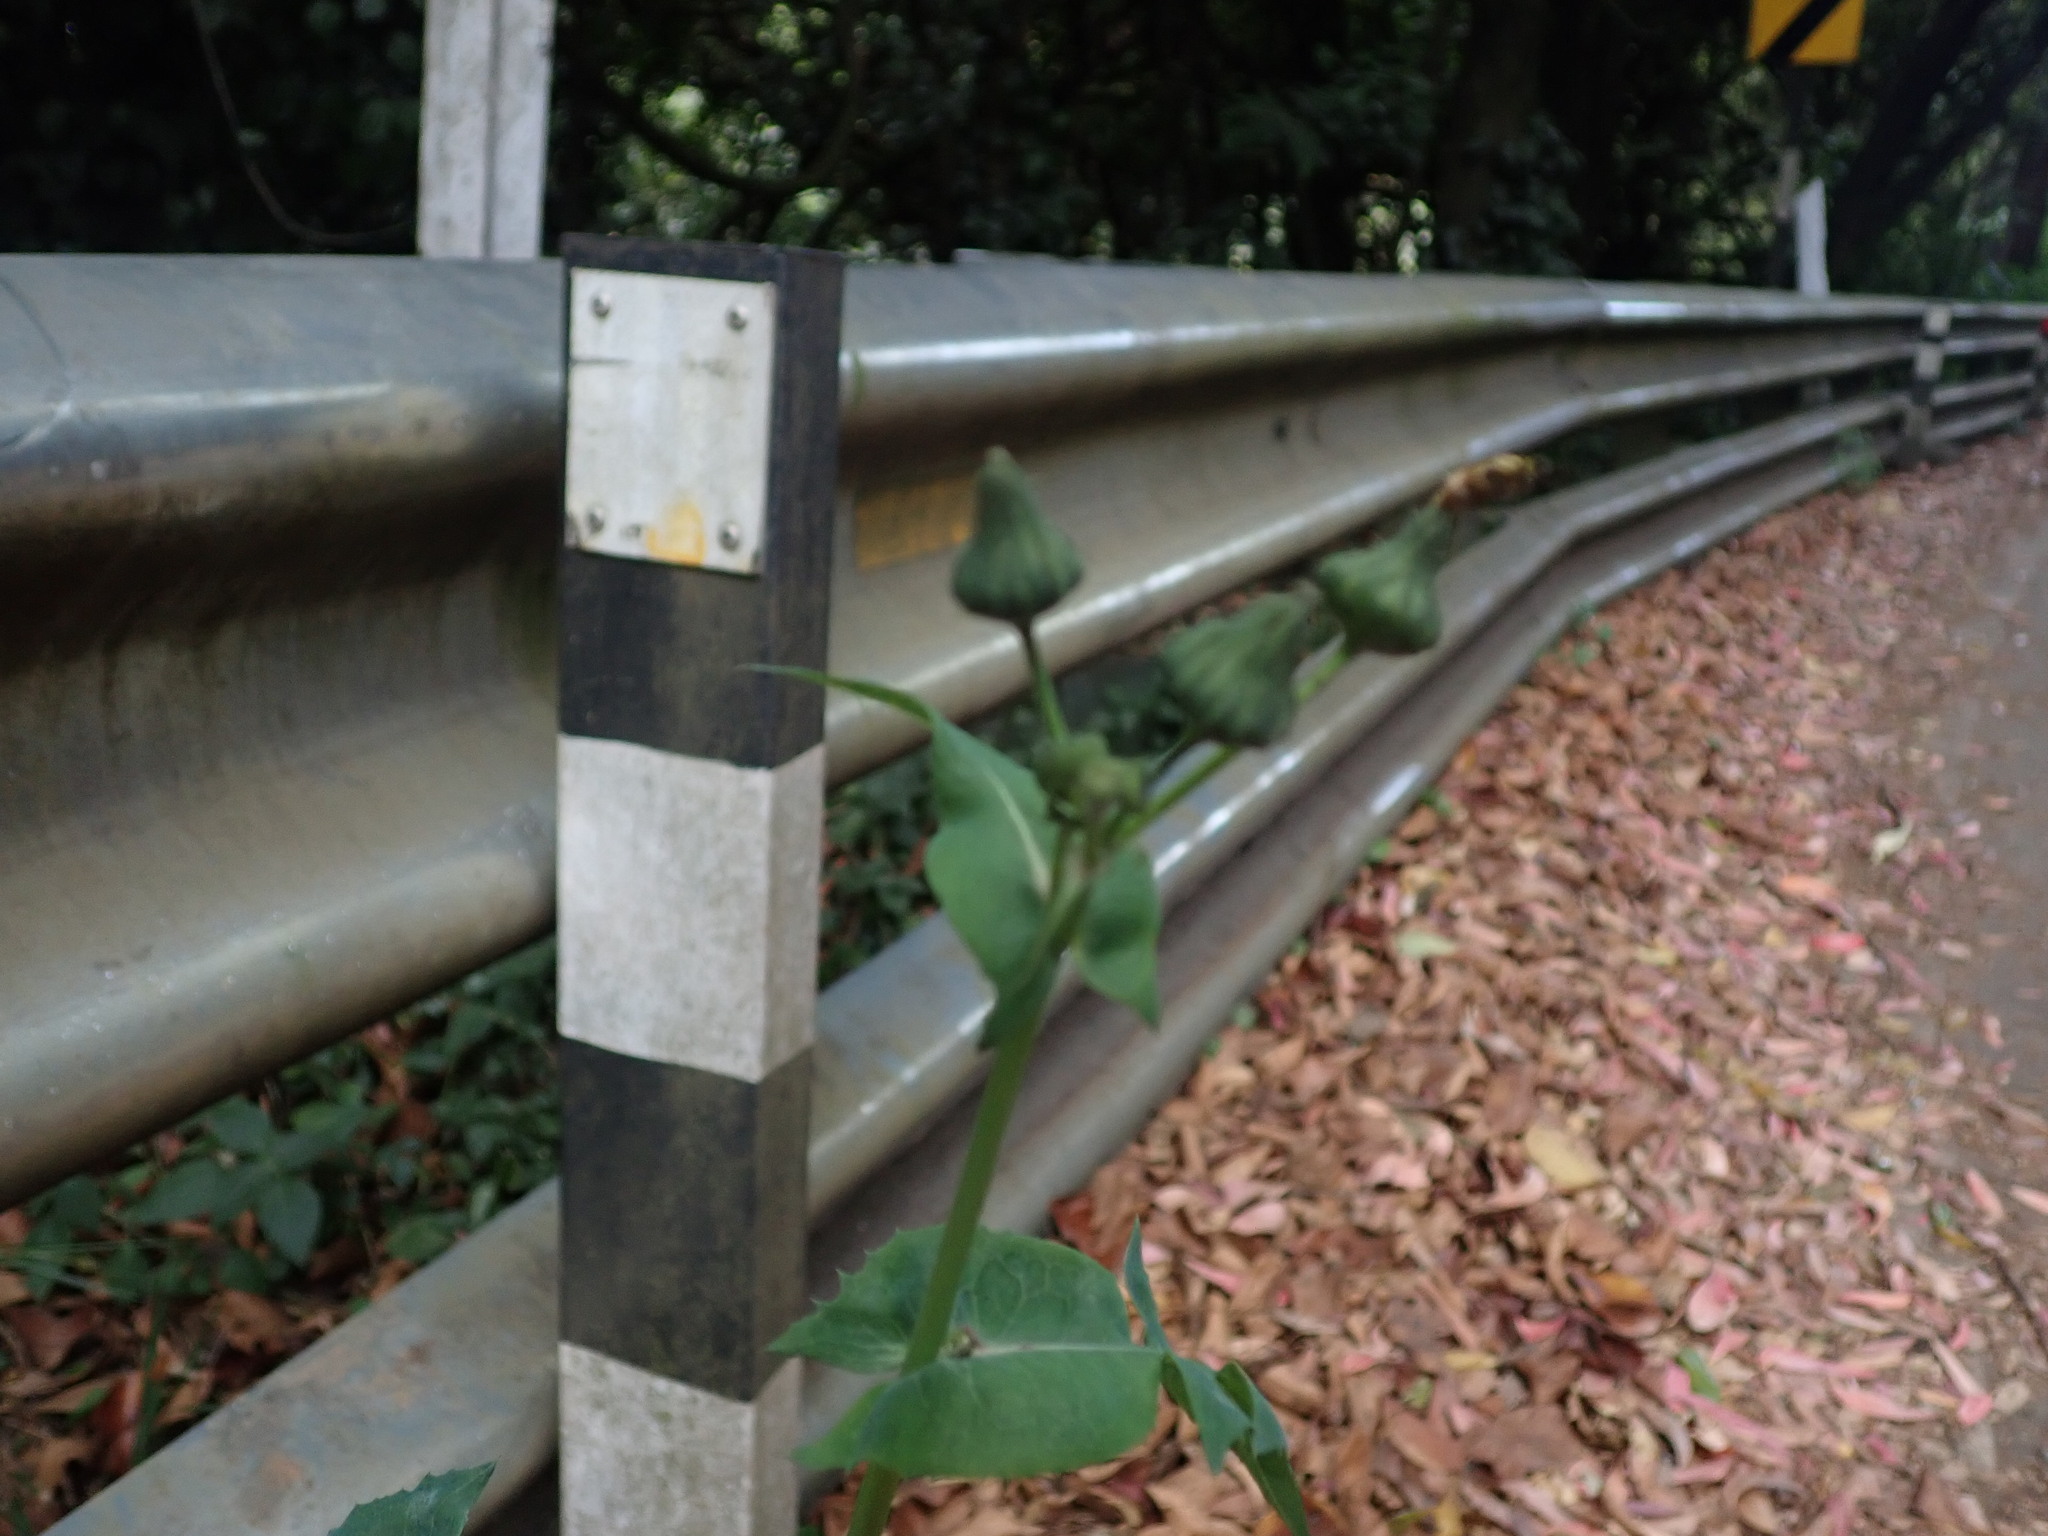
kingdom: Plantae
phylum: Tracheophyta
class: Magnoliopsida
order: Asterales
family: Asteraceae
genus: Sonchus
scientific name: Sonchus oleraceus
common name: Common sowthistle
